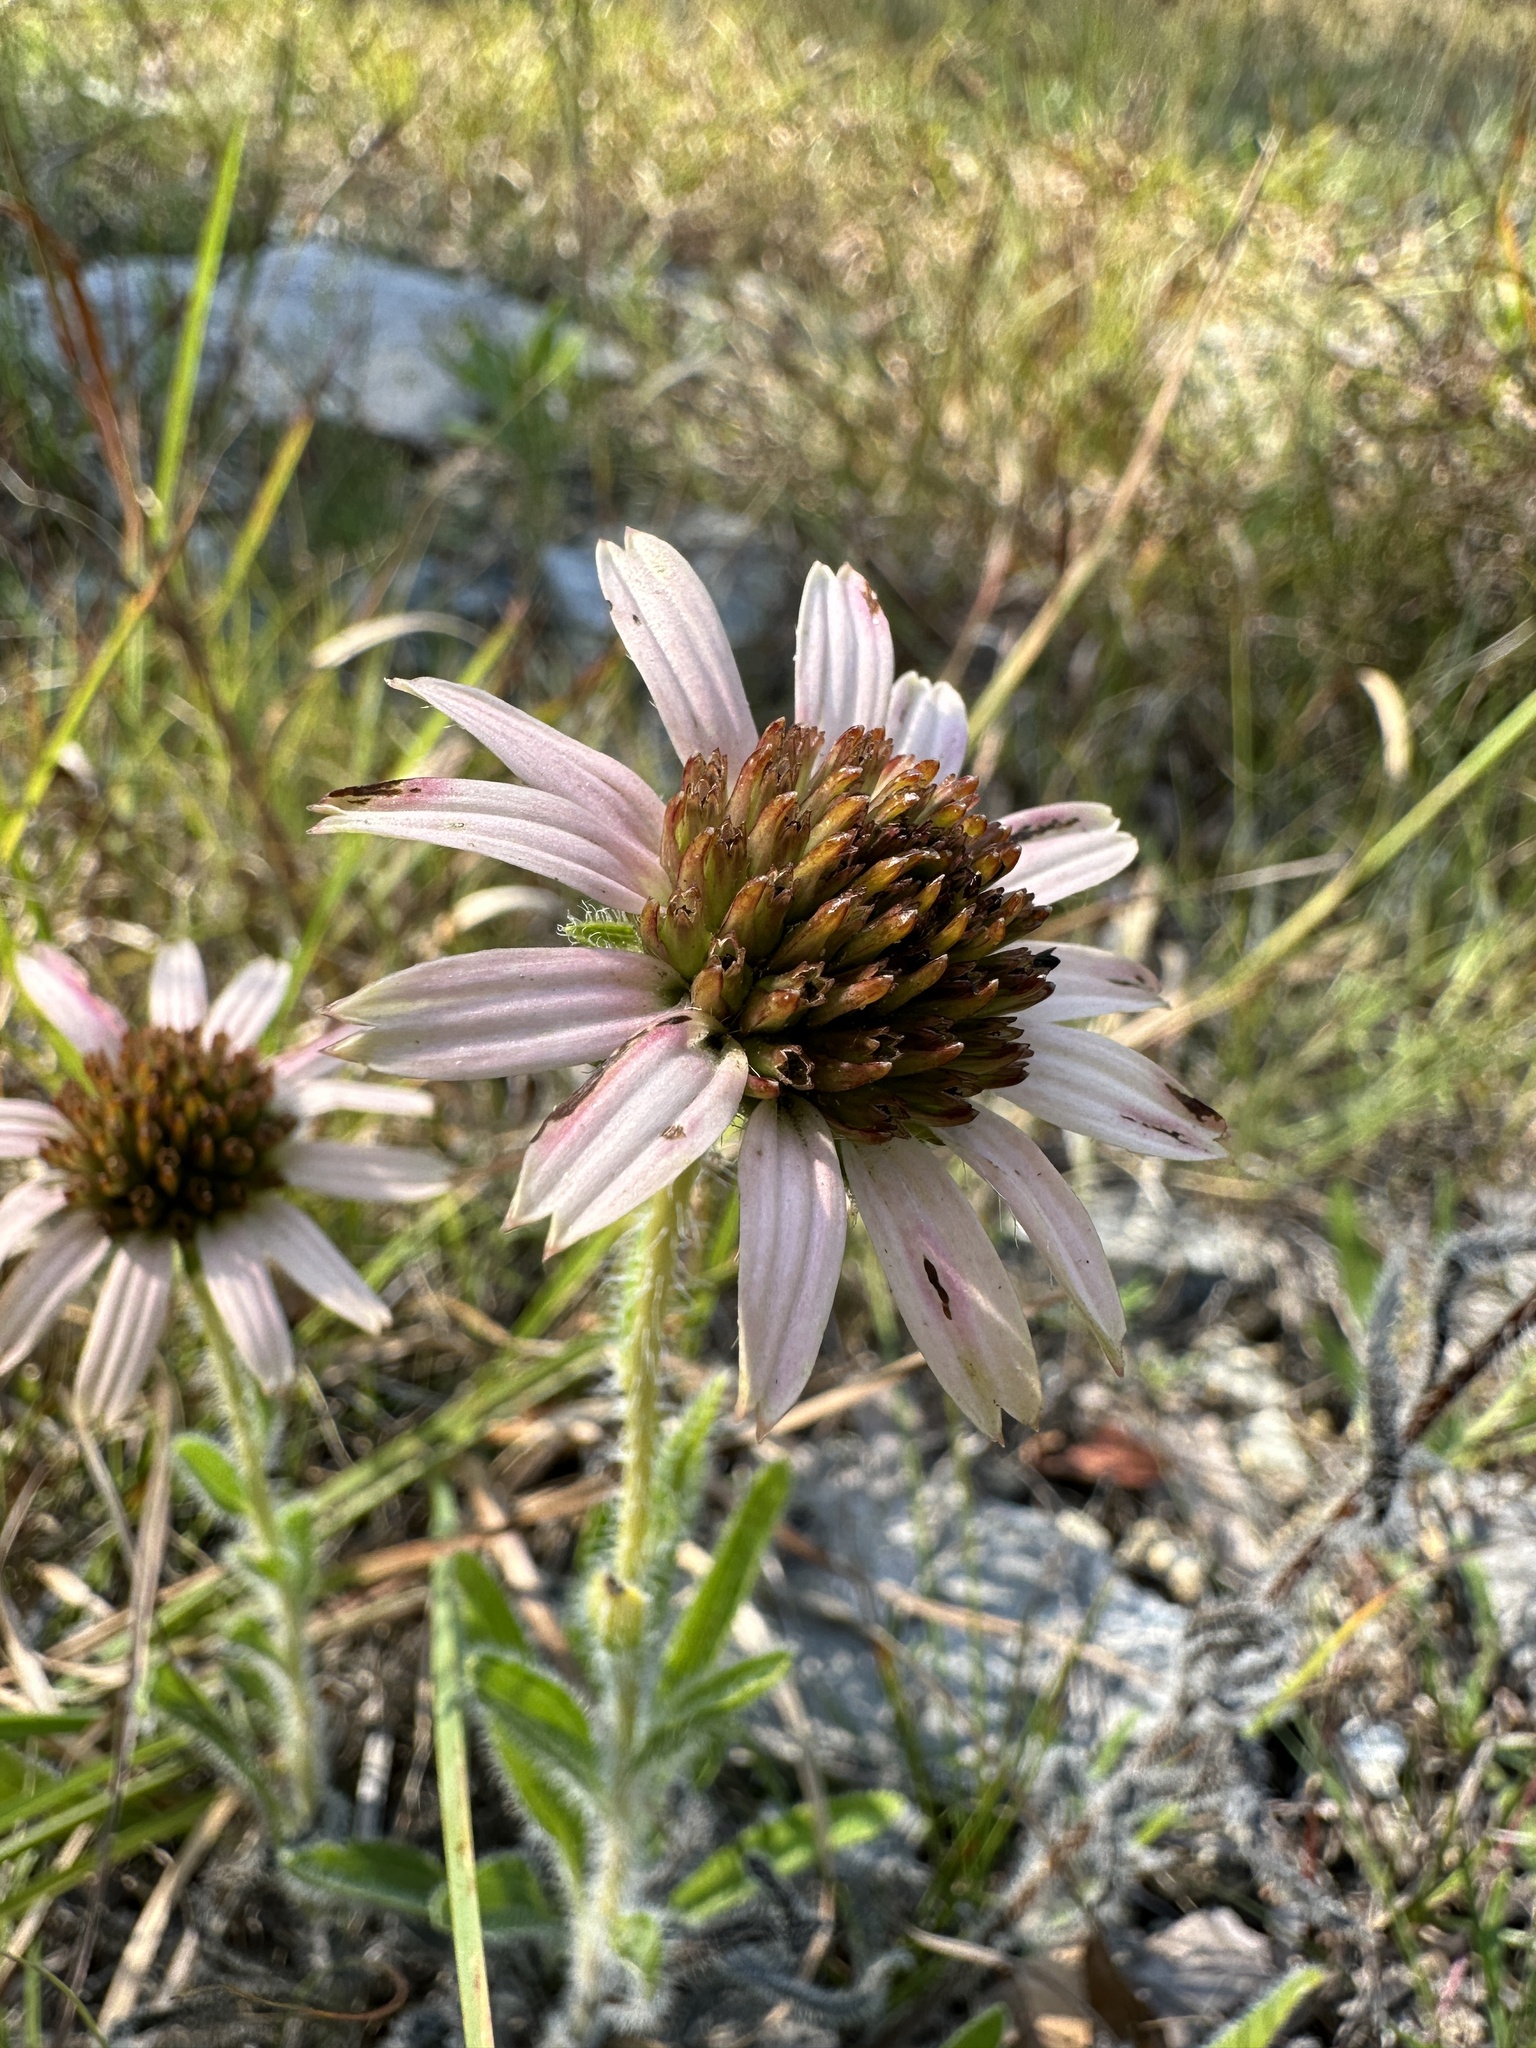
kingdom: Plantae
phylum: Tracheophyta
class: Magnoliopsida
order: Asterales
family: Asteraceae
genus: Echinacea
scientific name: Echinacea tennesseensis
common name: Tennessee purple-coneflower
